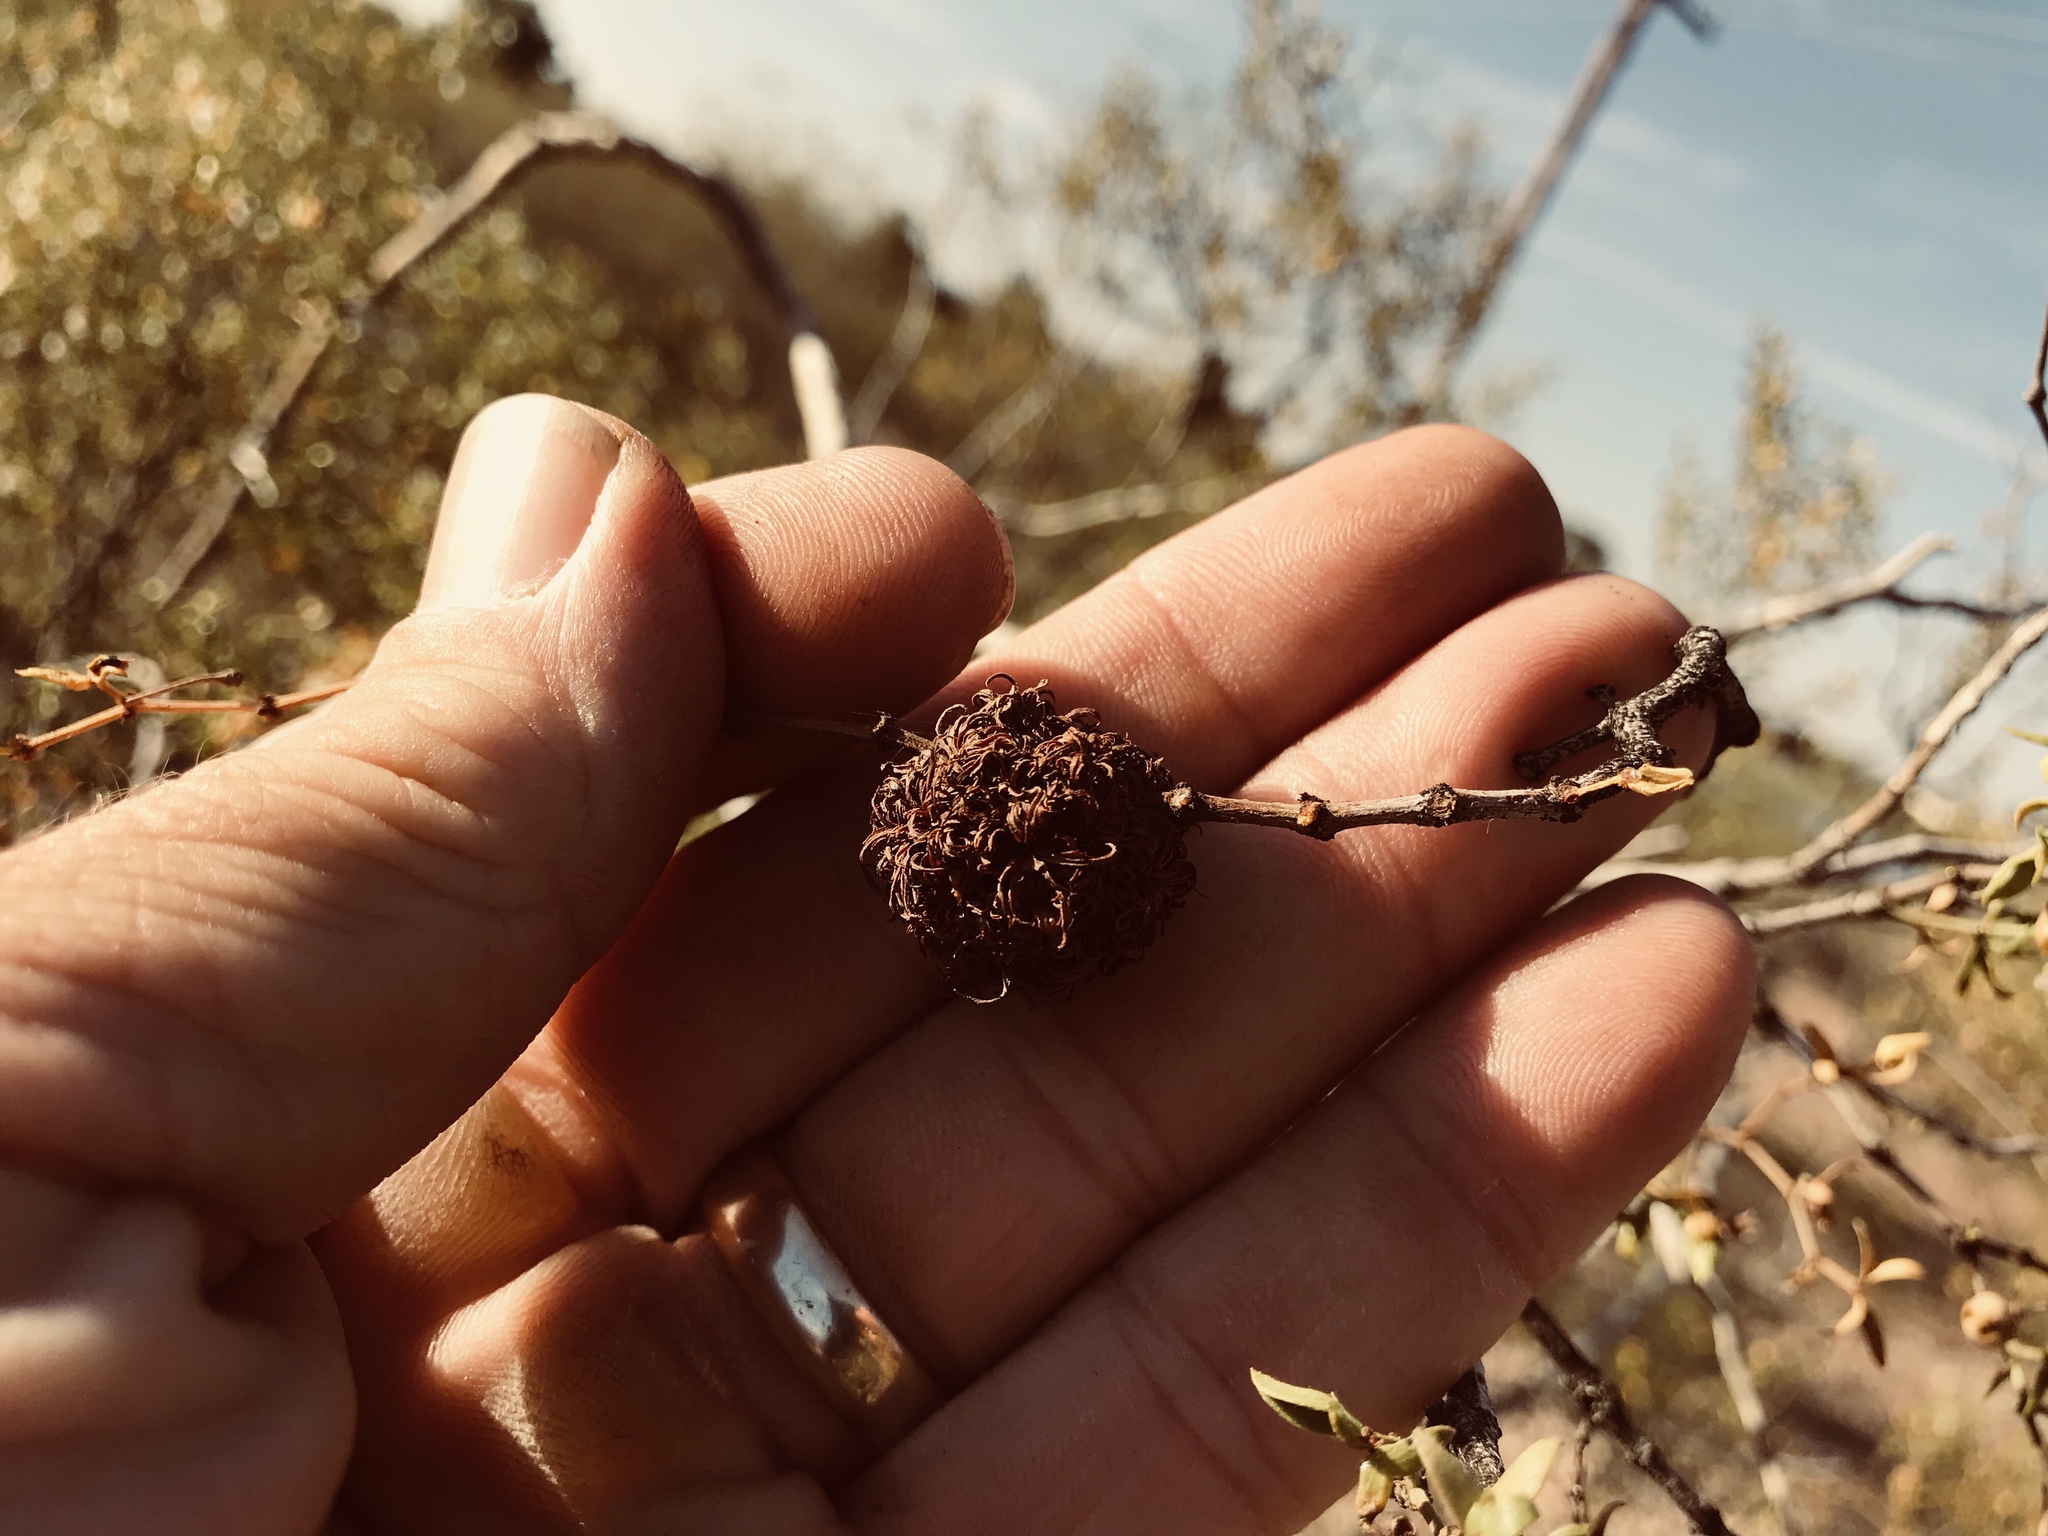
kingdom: Animalia
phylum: Arthropoda
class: Insecta
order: Diptera
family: Cecidomyiidae
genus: Asphondylia
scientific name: Asphondylia auripila
